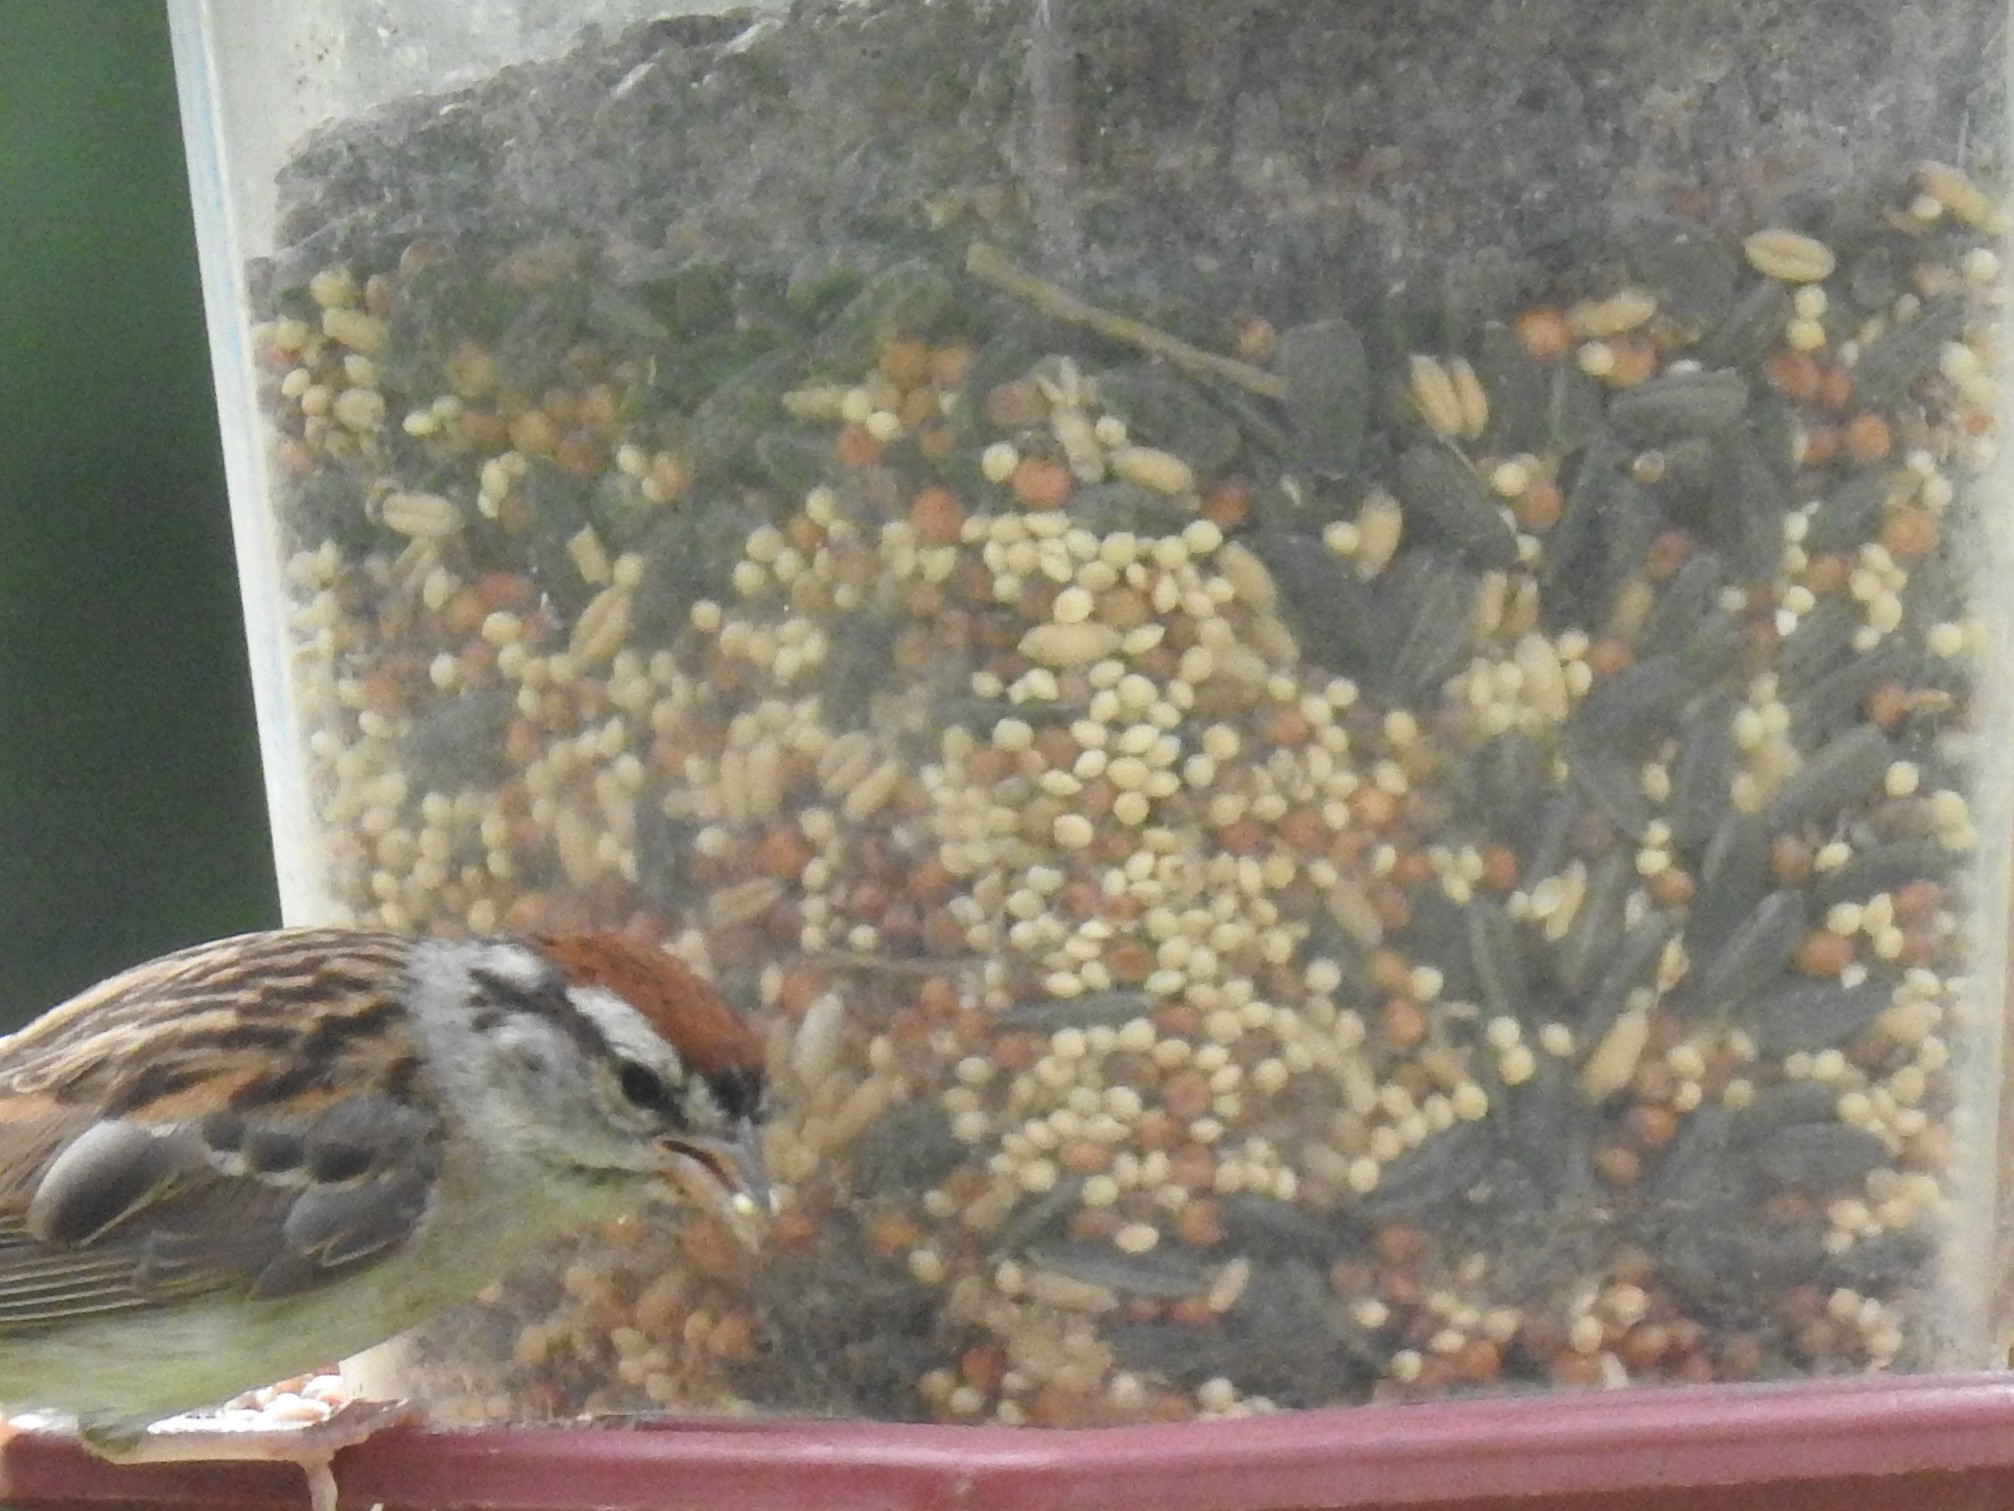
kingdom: Animalia
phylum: Chordata
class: Aves
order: Passeriformes
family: Passerellidae
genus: Spizella
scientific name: Spizella passerina
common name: Chipping sparrow
